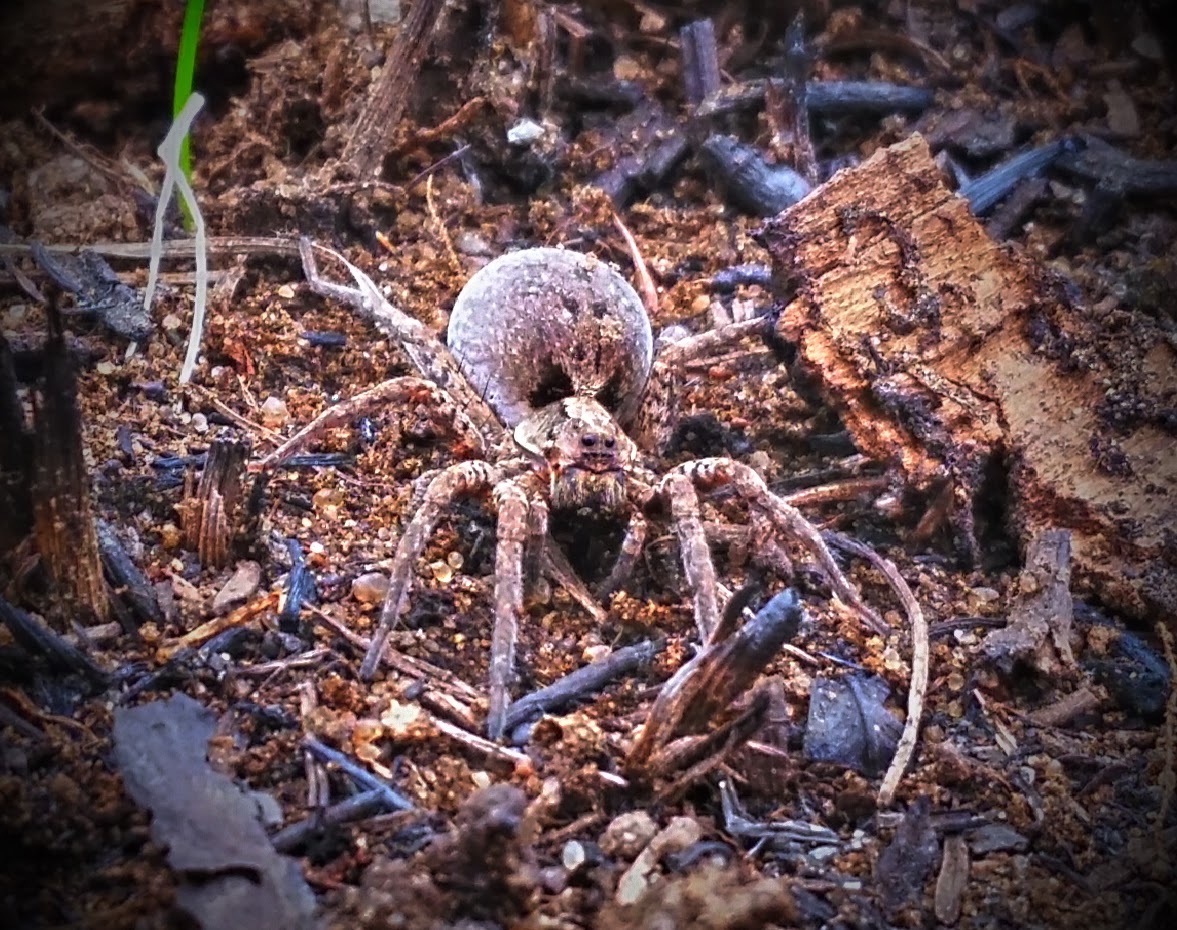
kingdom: Animalia
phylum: Arthropoda
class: Arachnida
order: Araneae
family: Lycosidae
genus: Gladicosa
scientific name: Gladicosa gulosa
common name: Drumming sword wolf spider
